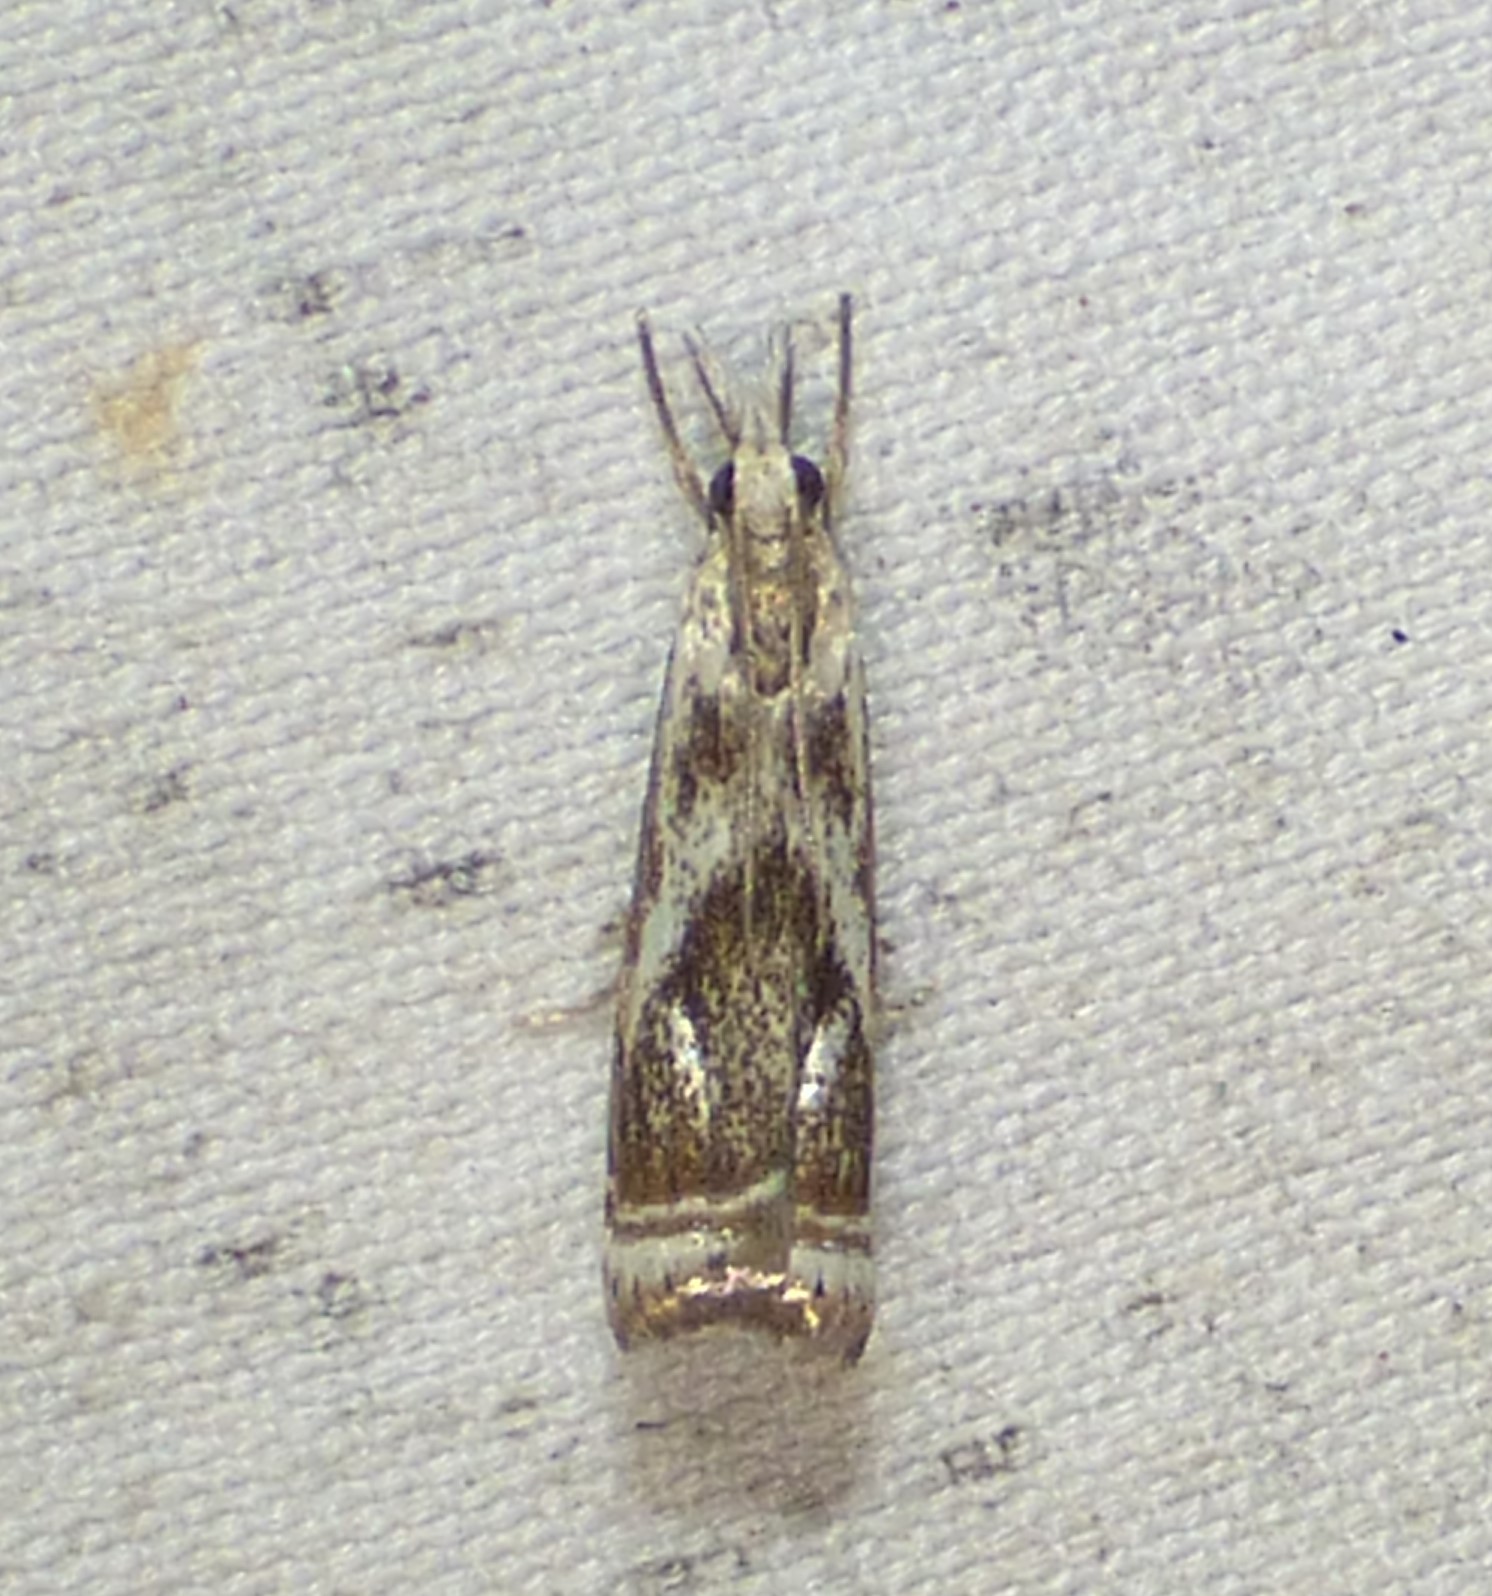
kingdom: Animalia
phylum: Arthropoda
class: Insecta
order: Lepidoptera
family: Crambidae
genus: Microcrambus
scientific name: Microcrambus elegans
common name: Elegant grass-veneer
